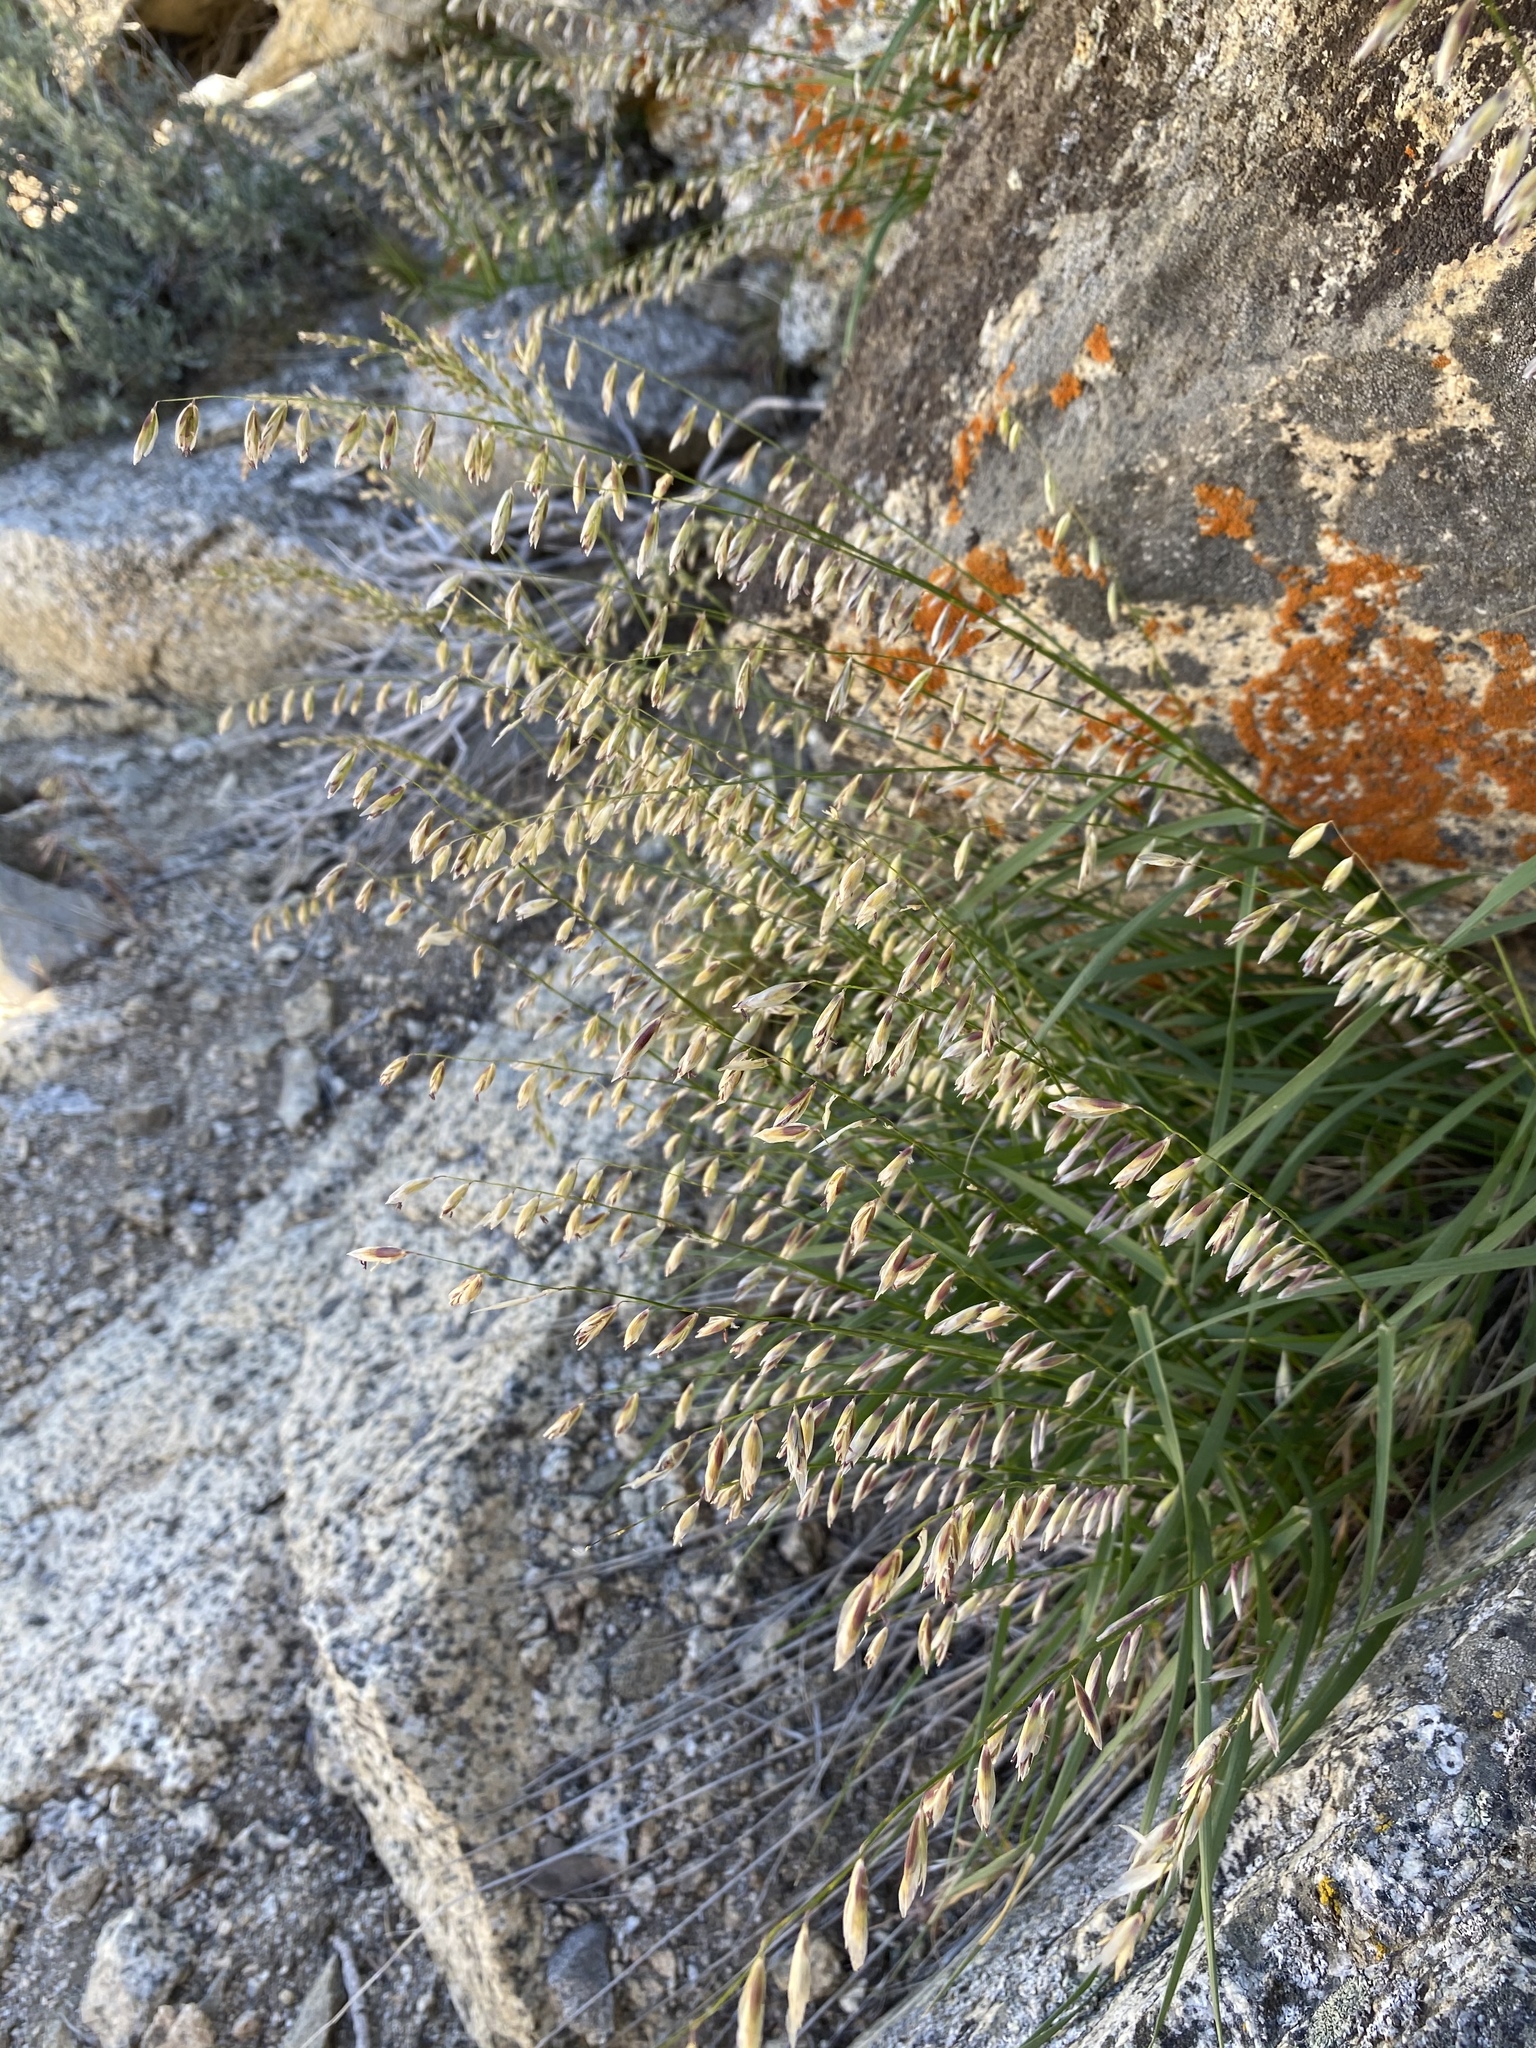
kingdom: Plantae
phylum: Tracheophyta
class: Liliopsida
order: Poales
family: Poaceae
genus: Melica
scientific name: Melica stricta
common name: Rock melic
